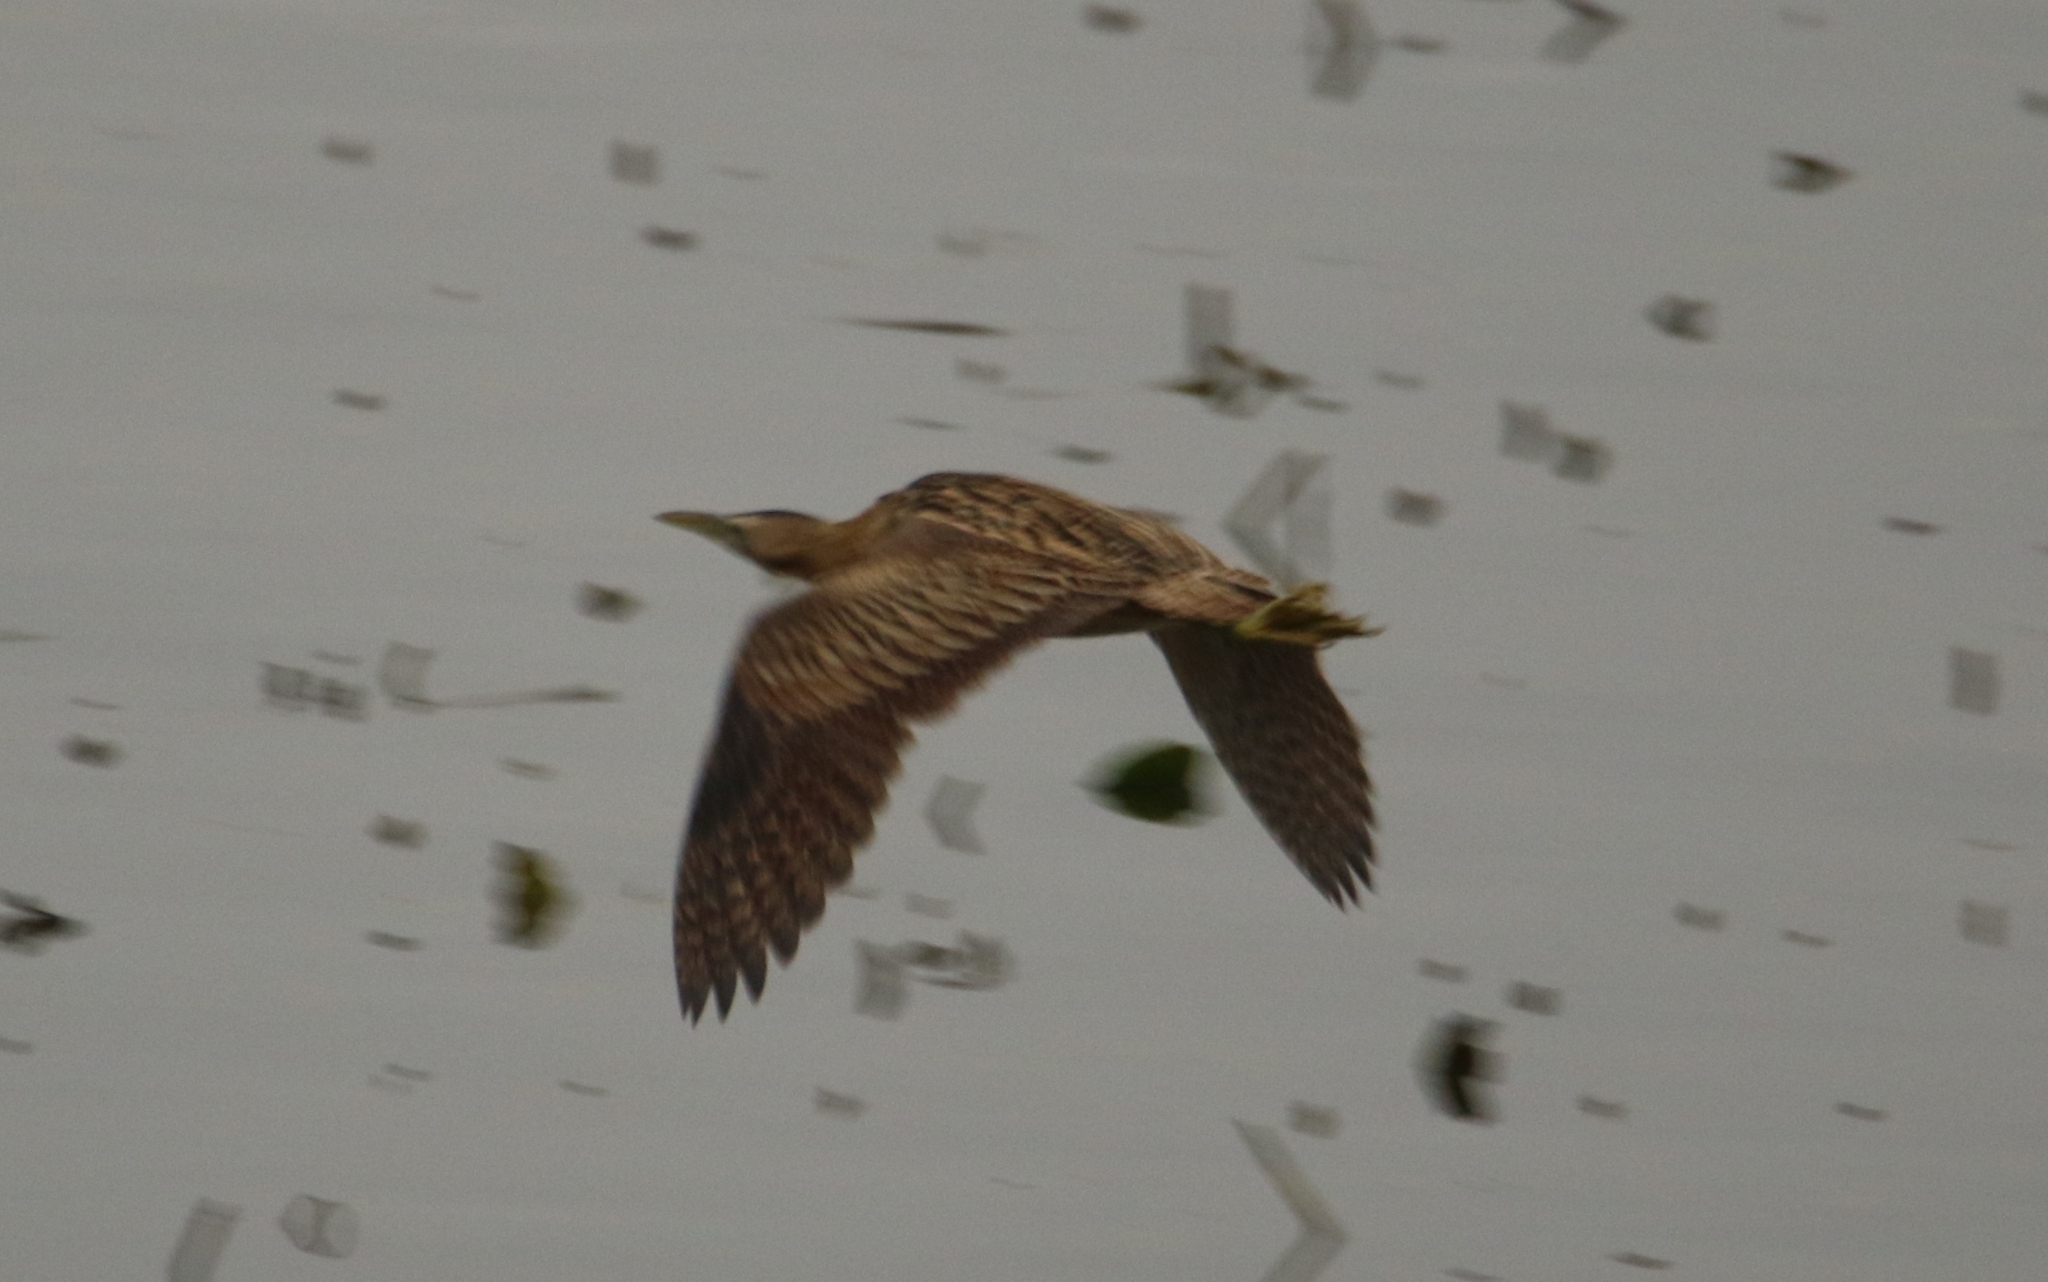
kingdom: Animalia
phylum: Chordata
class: Aves
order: Pelecaniformes
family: Ardeidae
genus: Botaurus
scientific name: Botaurus stellaris
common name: Eurasian bittern
